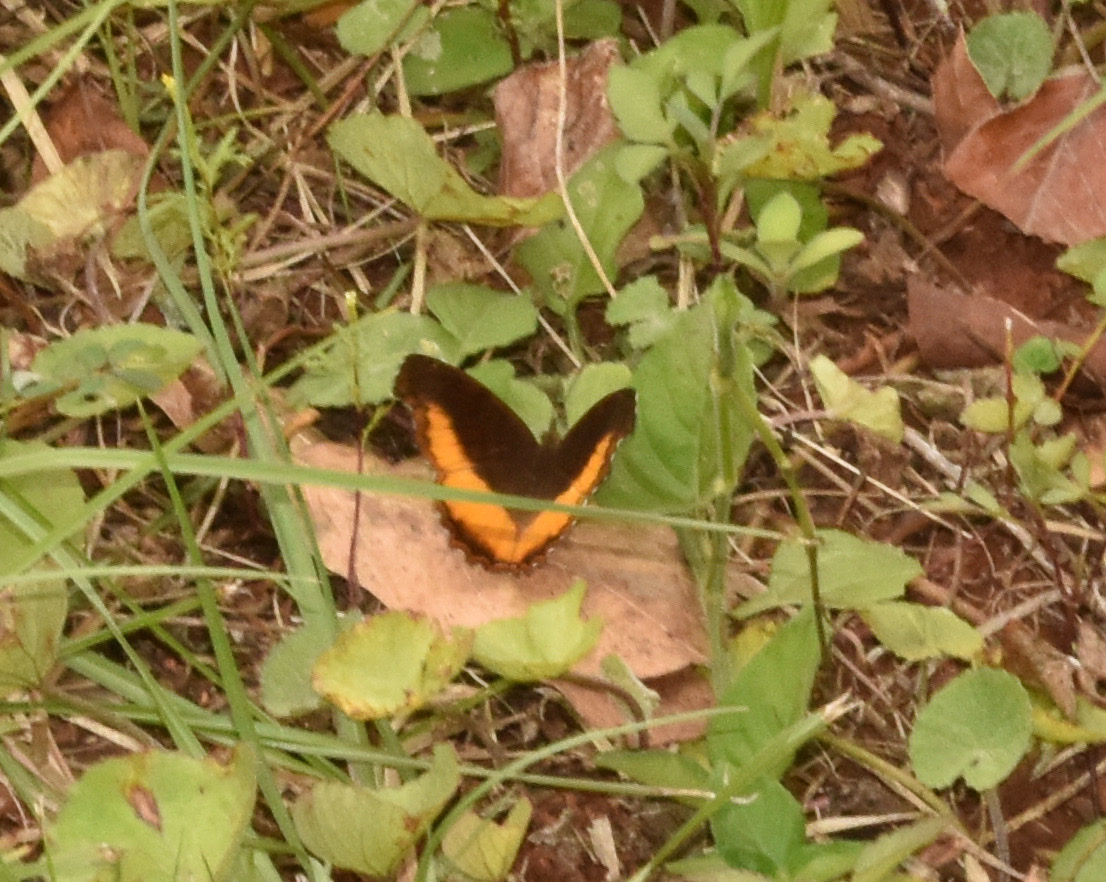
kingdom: Animalia
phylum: Arthropoda
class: Insecta
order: Lepidoptera
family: Nymphalidae
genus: Eurytela
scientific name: Eurytela dryope
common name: Golden piper
